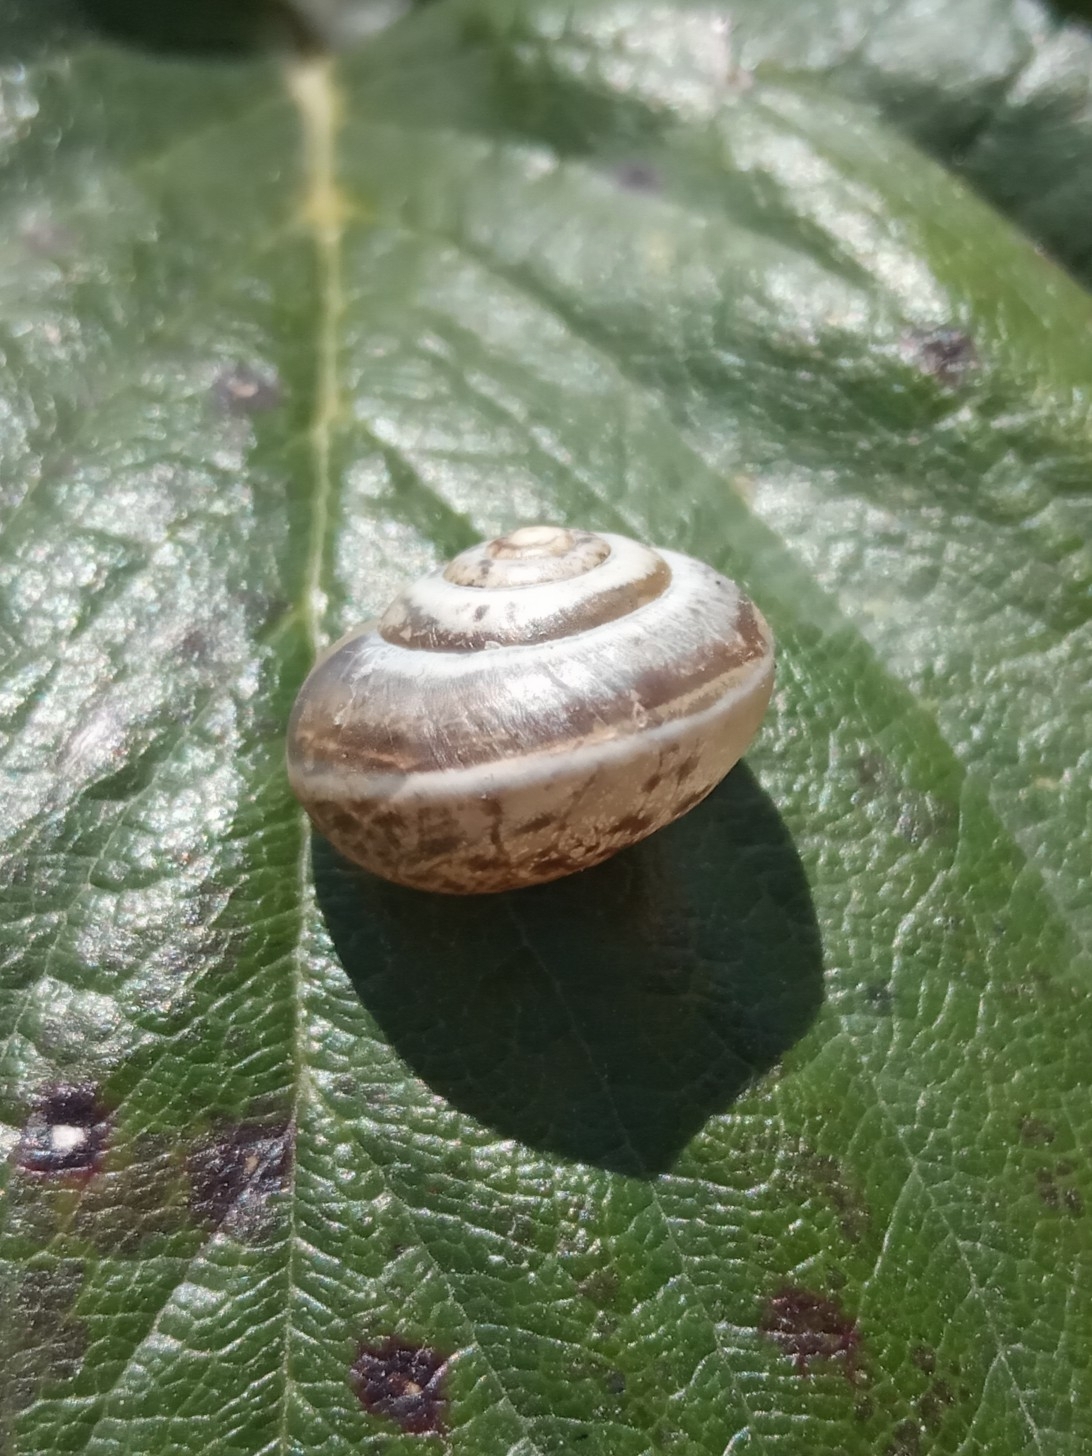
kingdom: Animalia
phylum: Mollusca
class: Gastropoda
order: Stylommatophora
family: Hygromiidae
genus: Harmozica
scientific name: Harmozica ravergiensis
